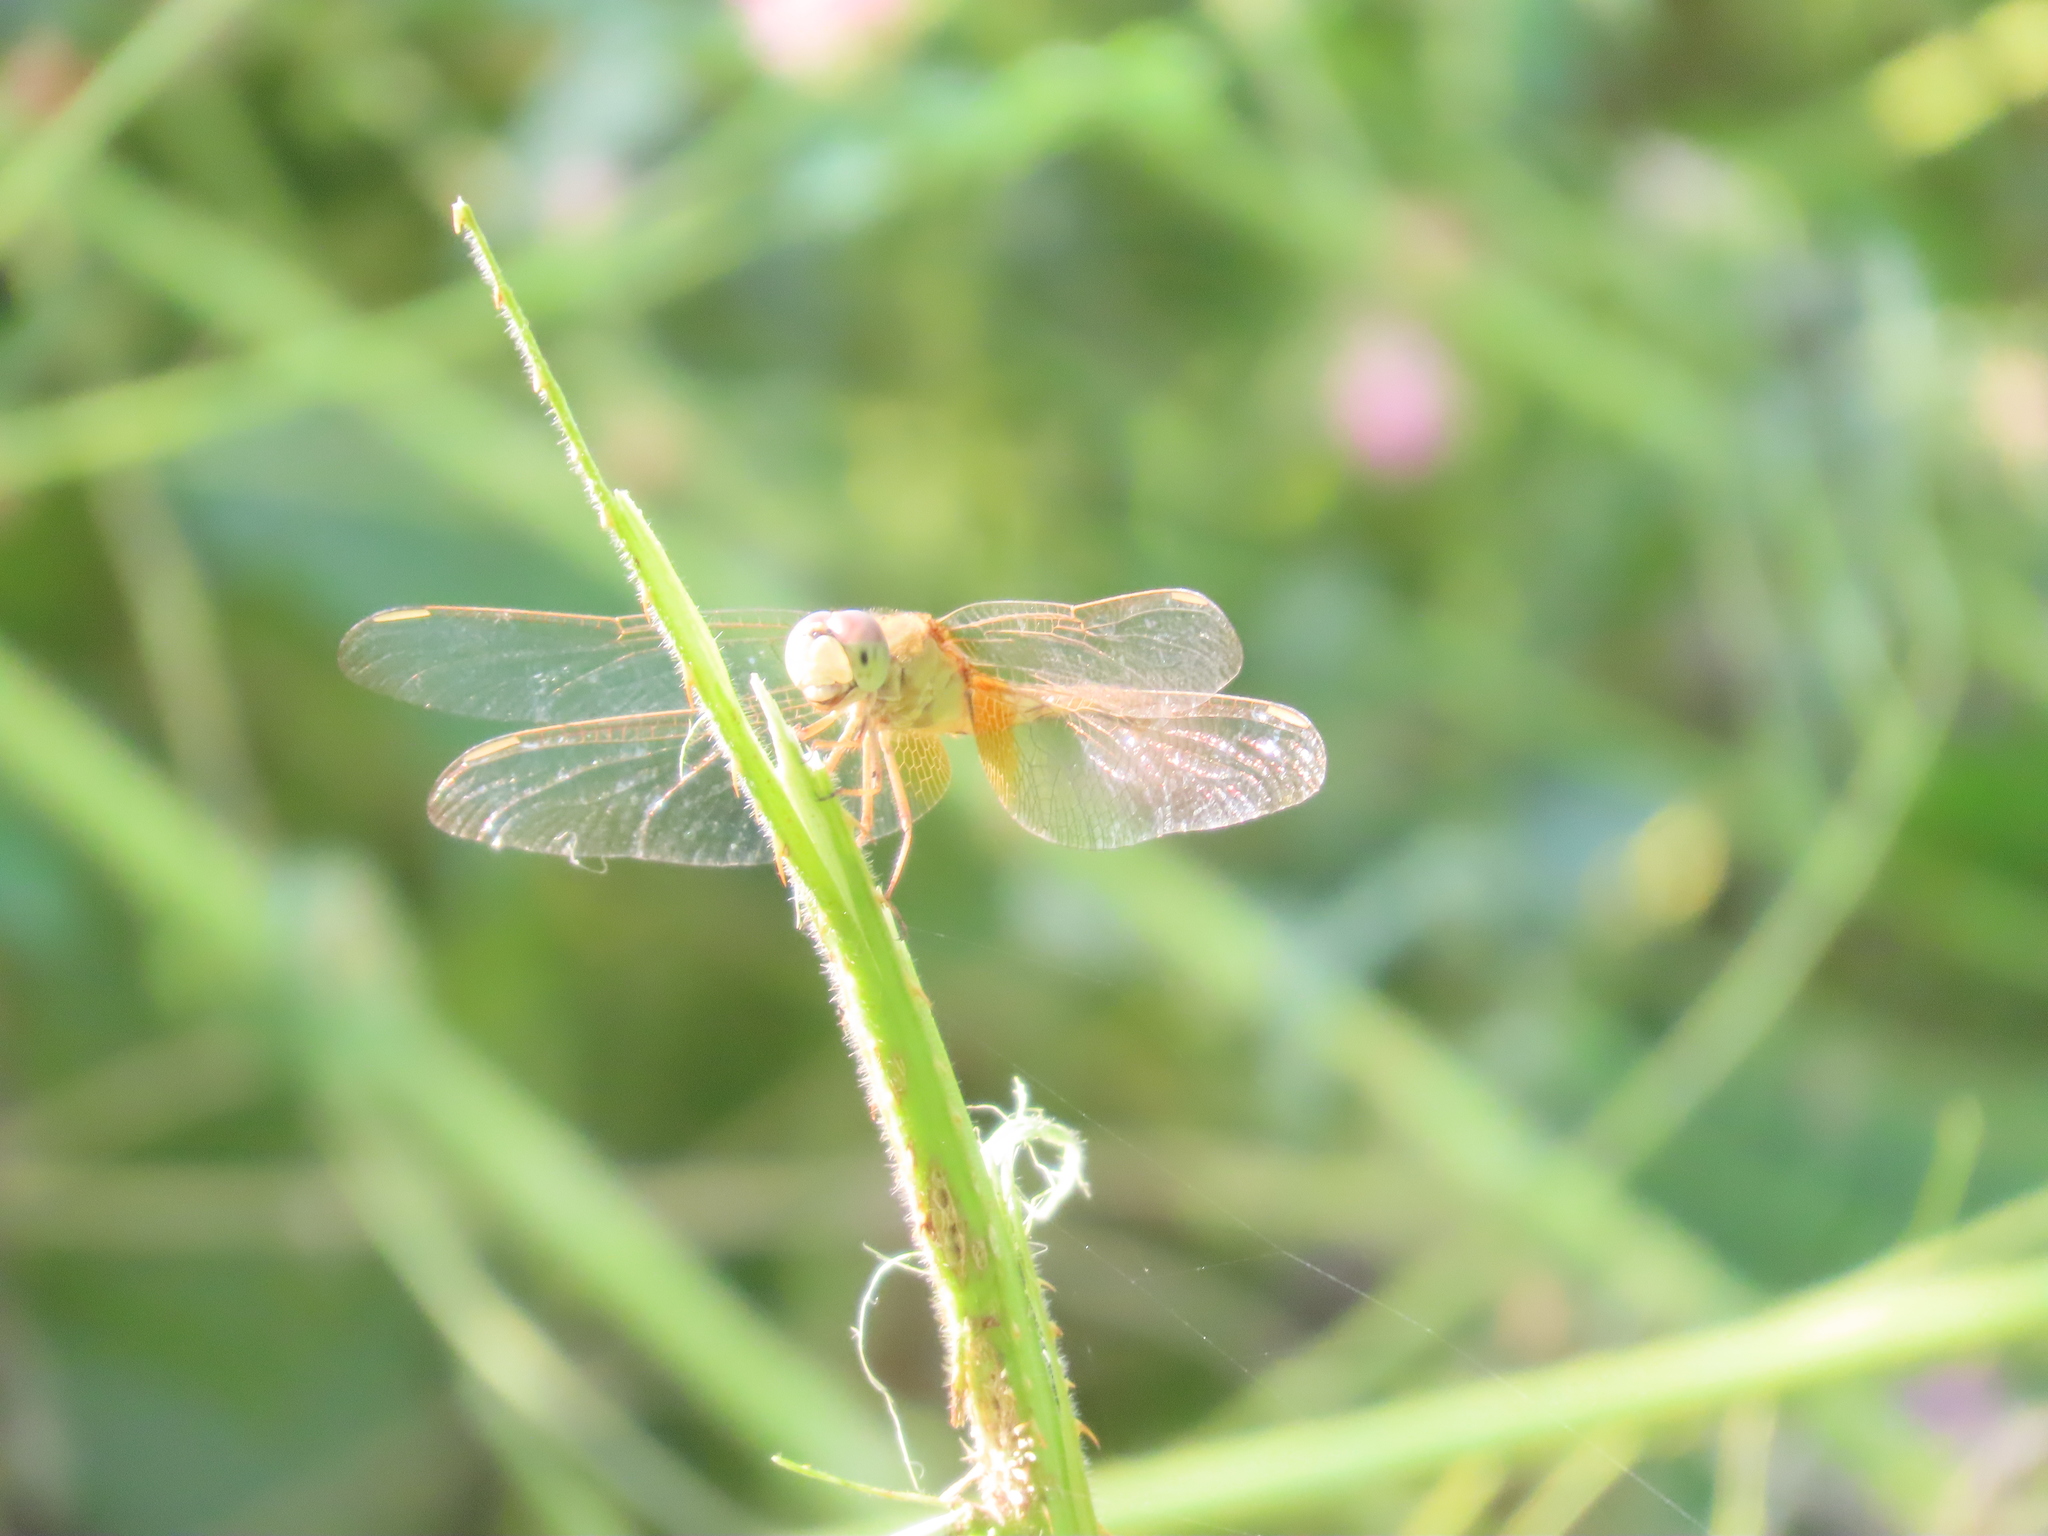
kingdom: Animalia
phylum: Arthropoda
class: Insecta
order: Odonata
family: Libellulidae
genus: Crocothemis
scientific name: Crocothemis servilia
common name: Scarlet skimmer
